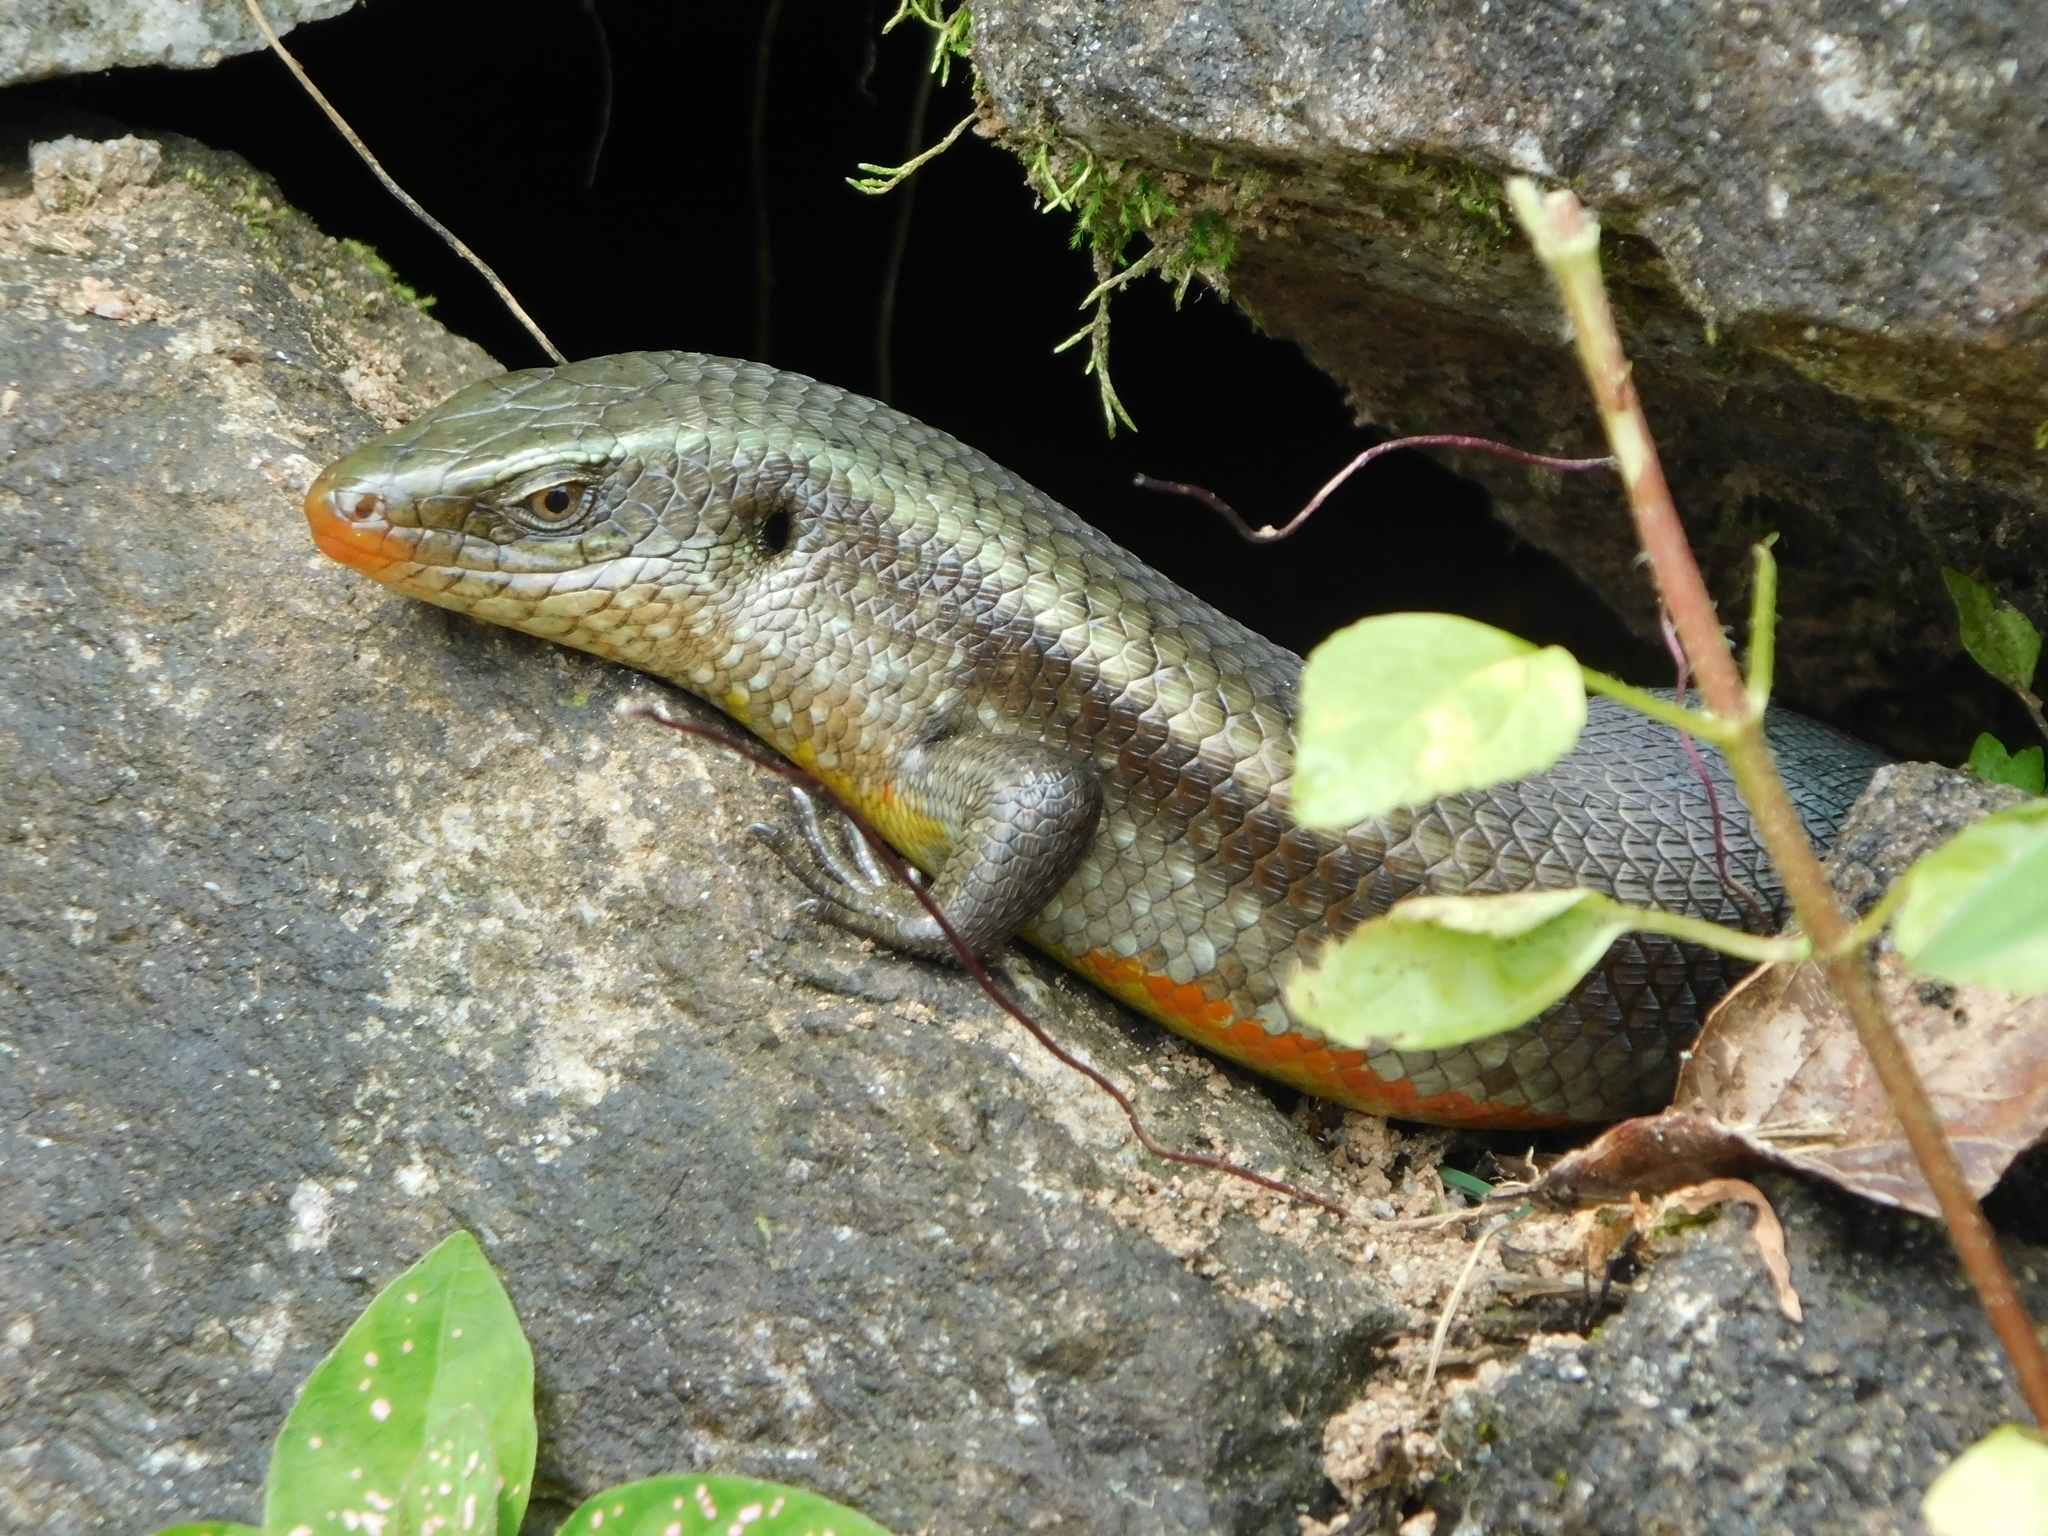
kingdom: Animalia
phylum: Chordata
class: Squamata
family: Scincidae
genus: Eutropis
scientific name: Eutropis carinata
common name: Keeled indian mabuya
